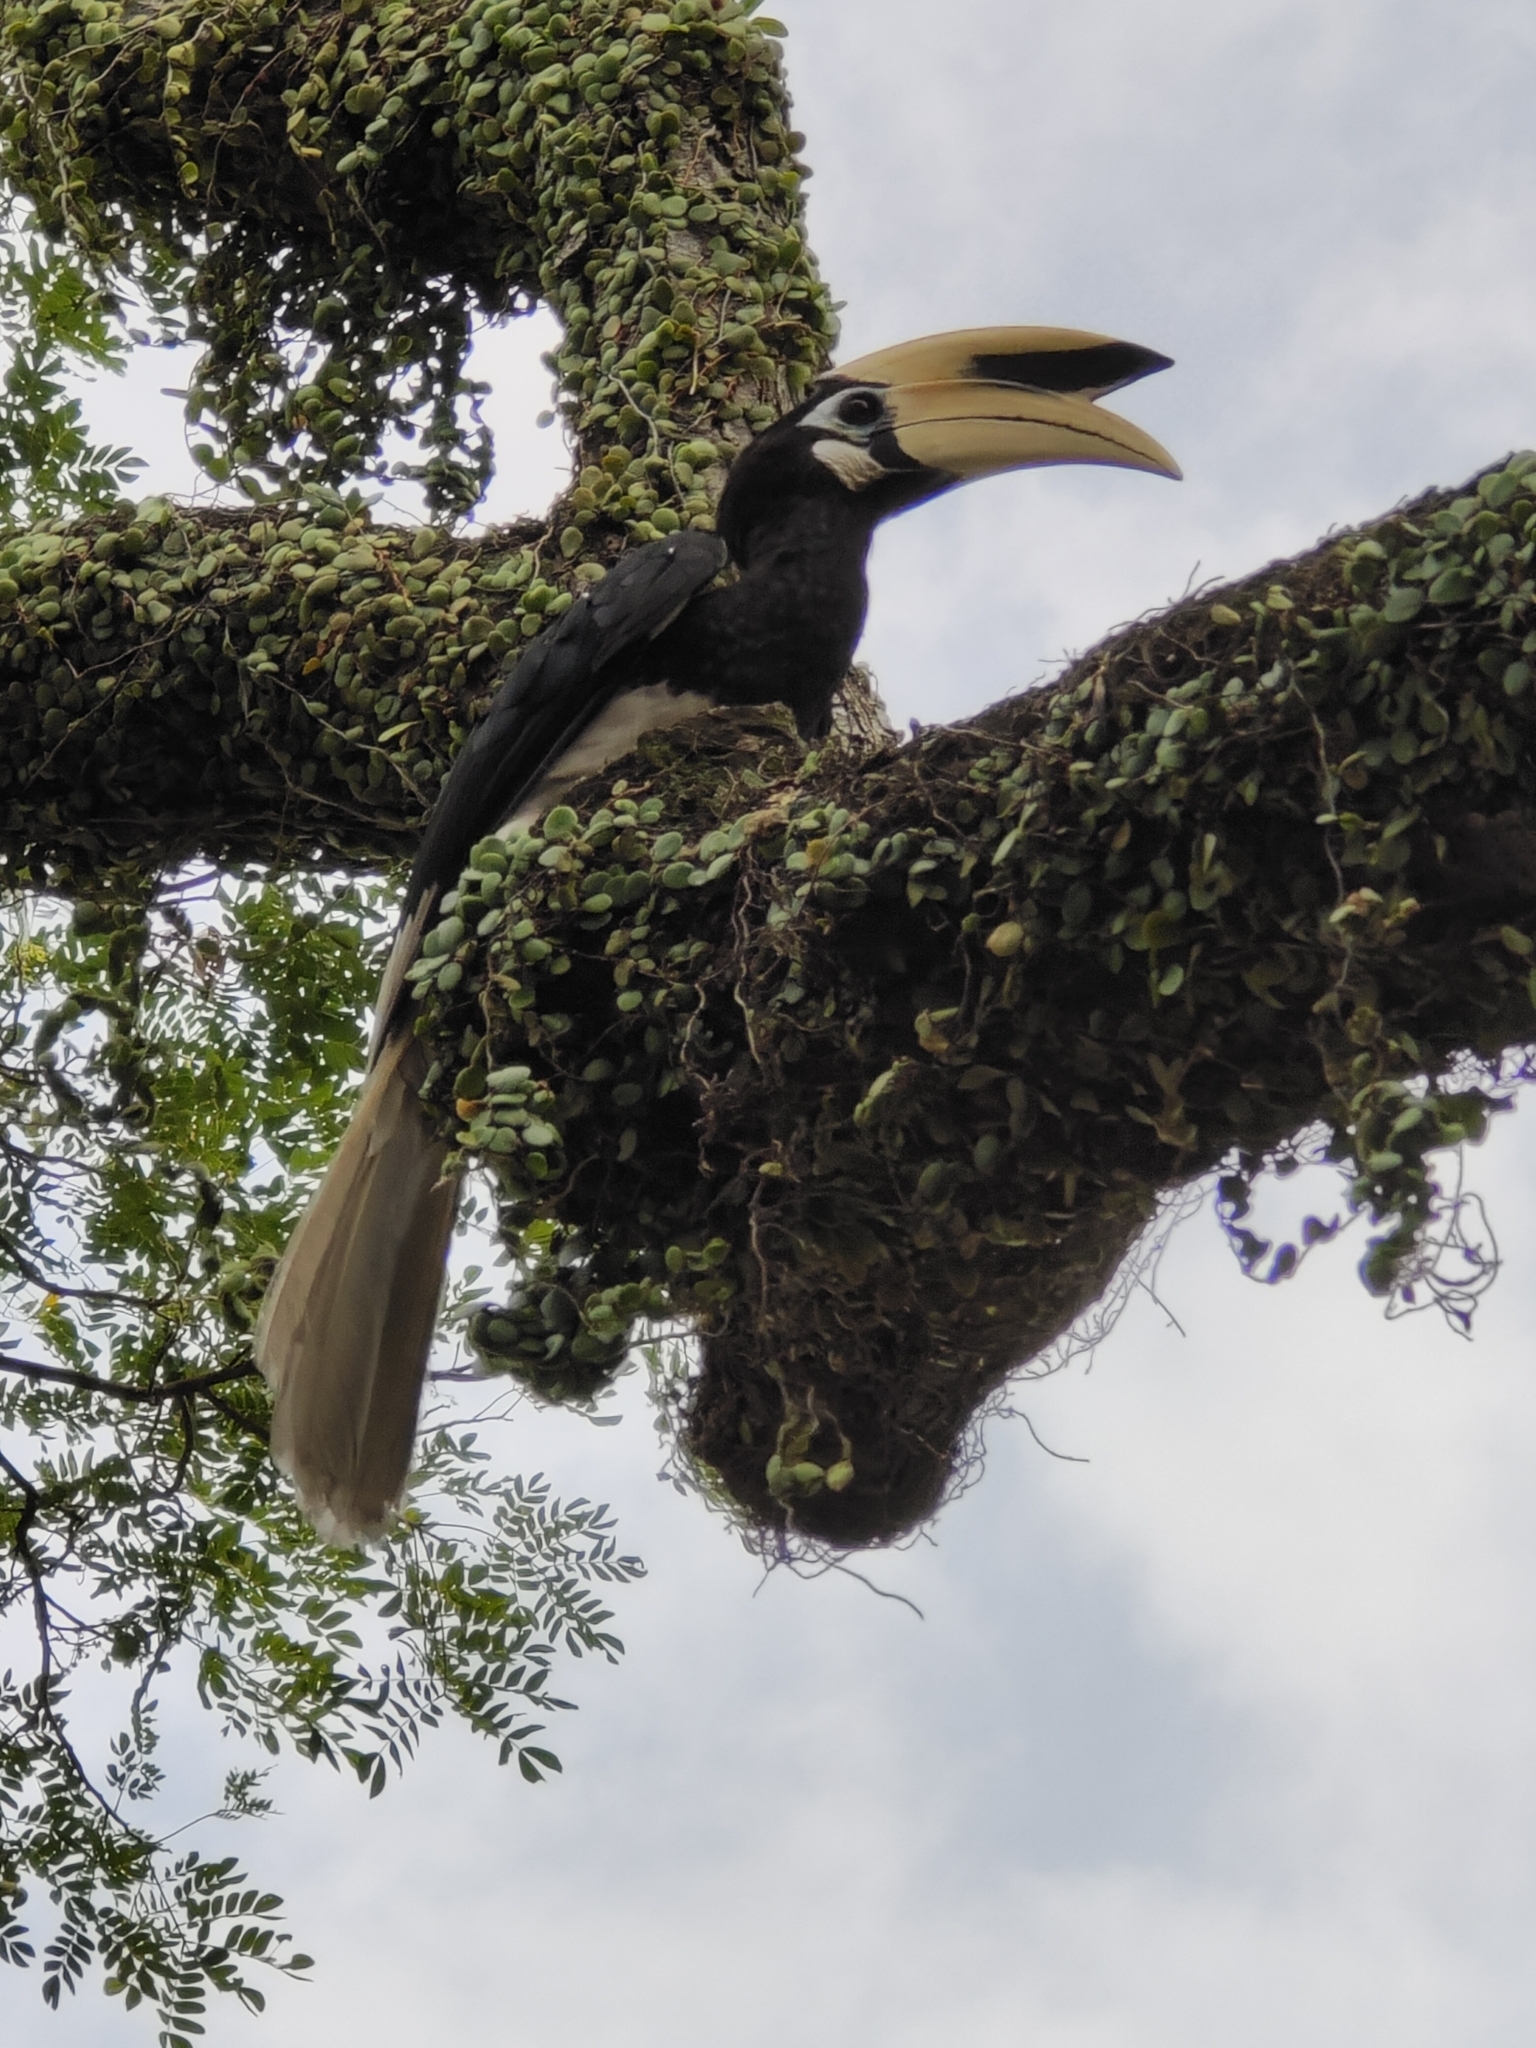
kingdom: Animalia
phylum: Chordata
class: Aves
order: Bucerotiformes
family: Bucerotidae
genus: Anthracoceros
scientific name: Anthracoceros albirostris
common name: Oriental pied-hornbill
